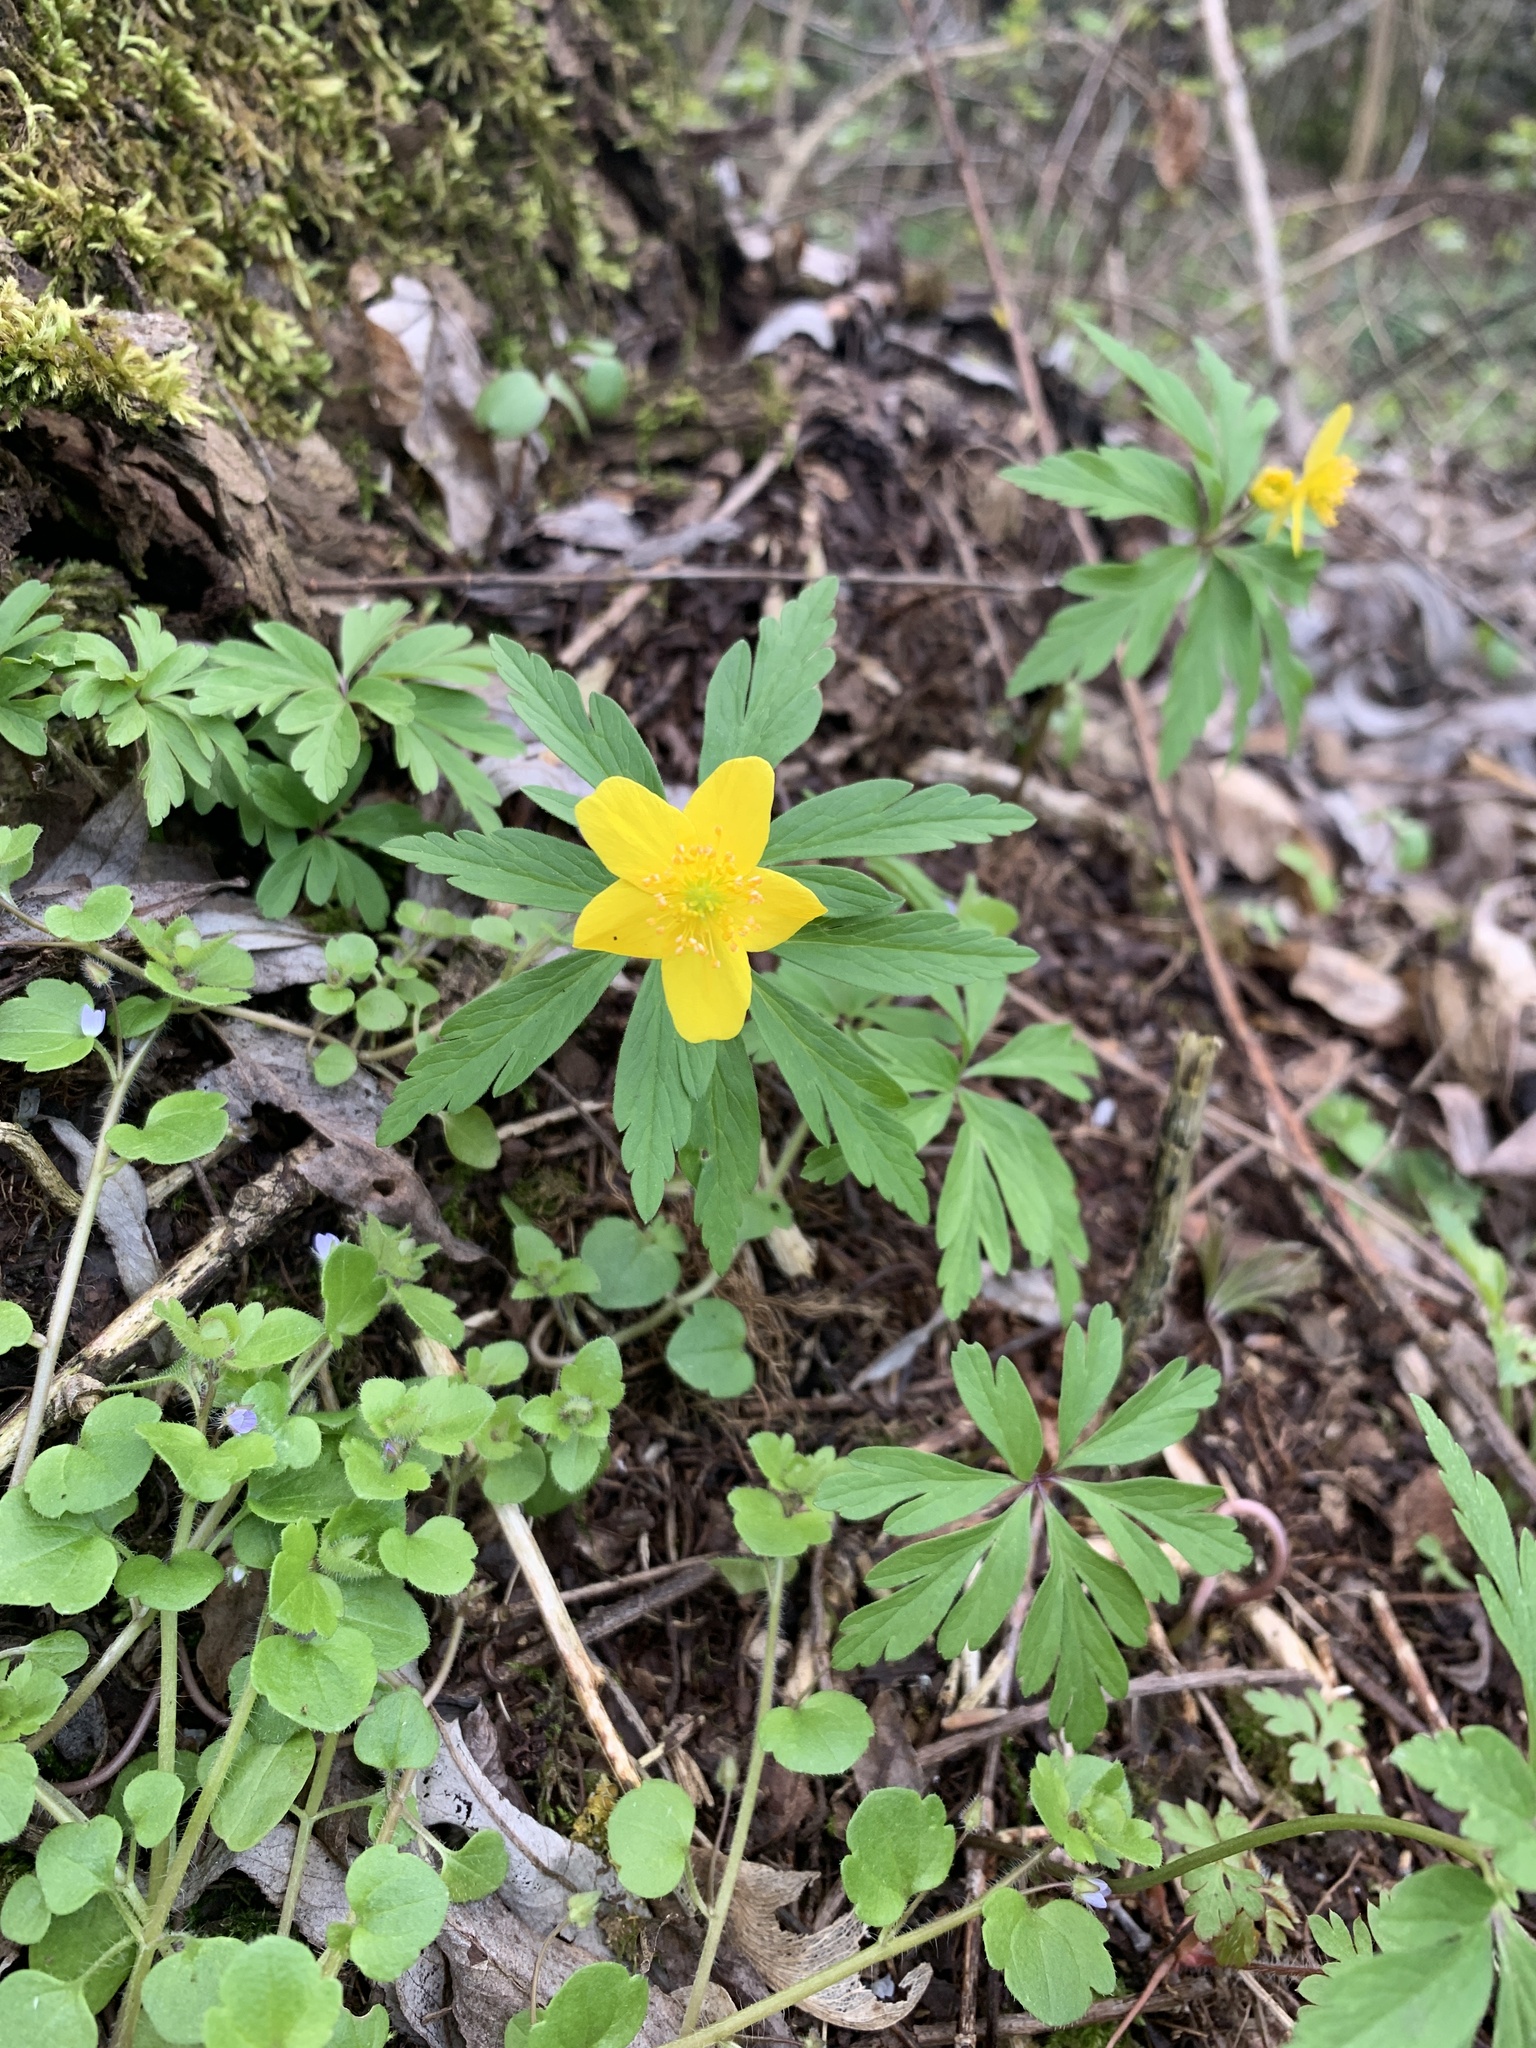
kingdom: Plantae
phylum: Tracheophyta
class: Magnoliopsida
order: Ranunculales
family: Ranunculaceae
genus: Anemone
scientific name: Anemone ranunculoides
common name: Yellow anemone
